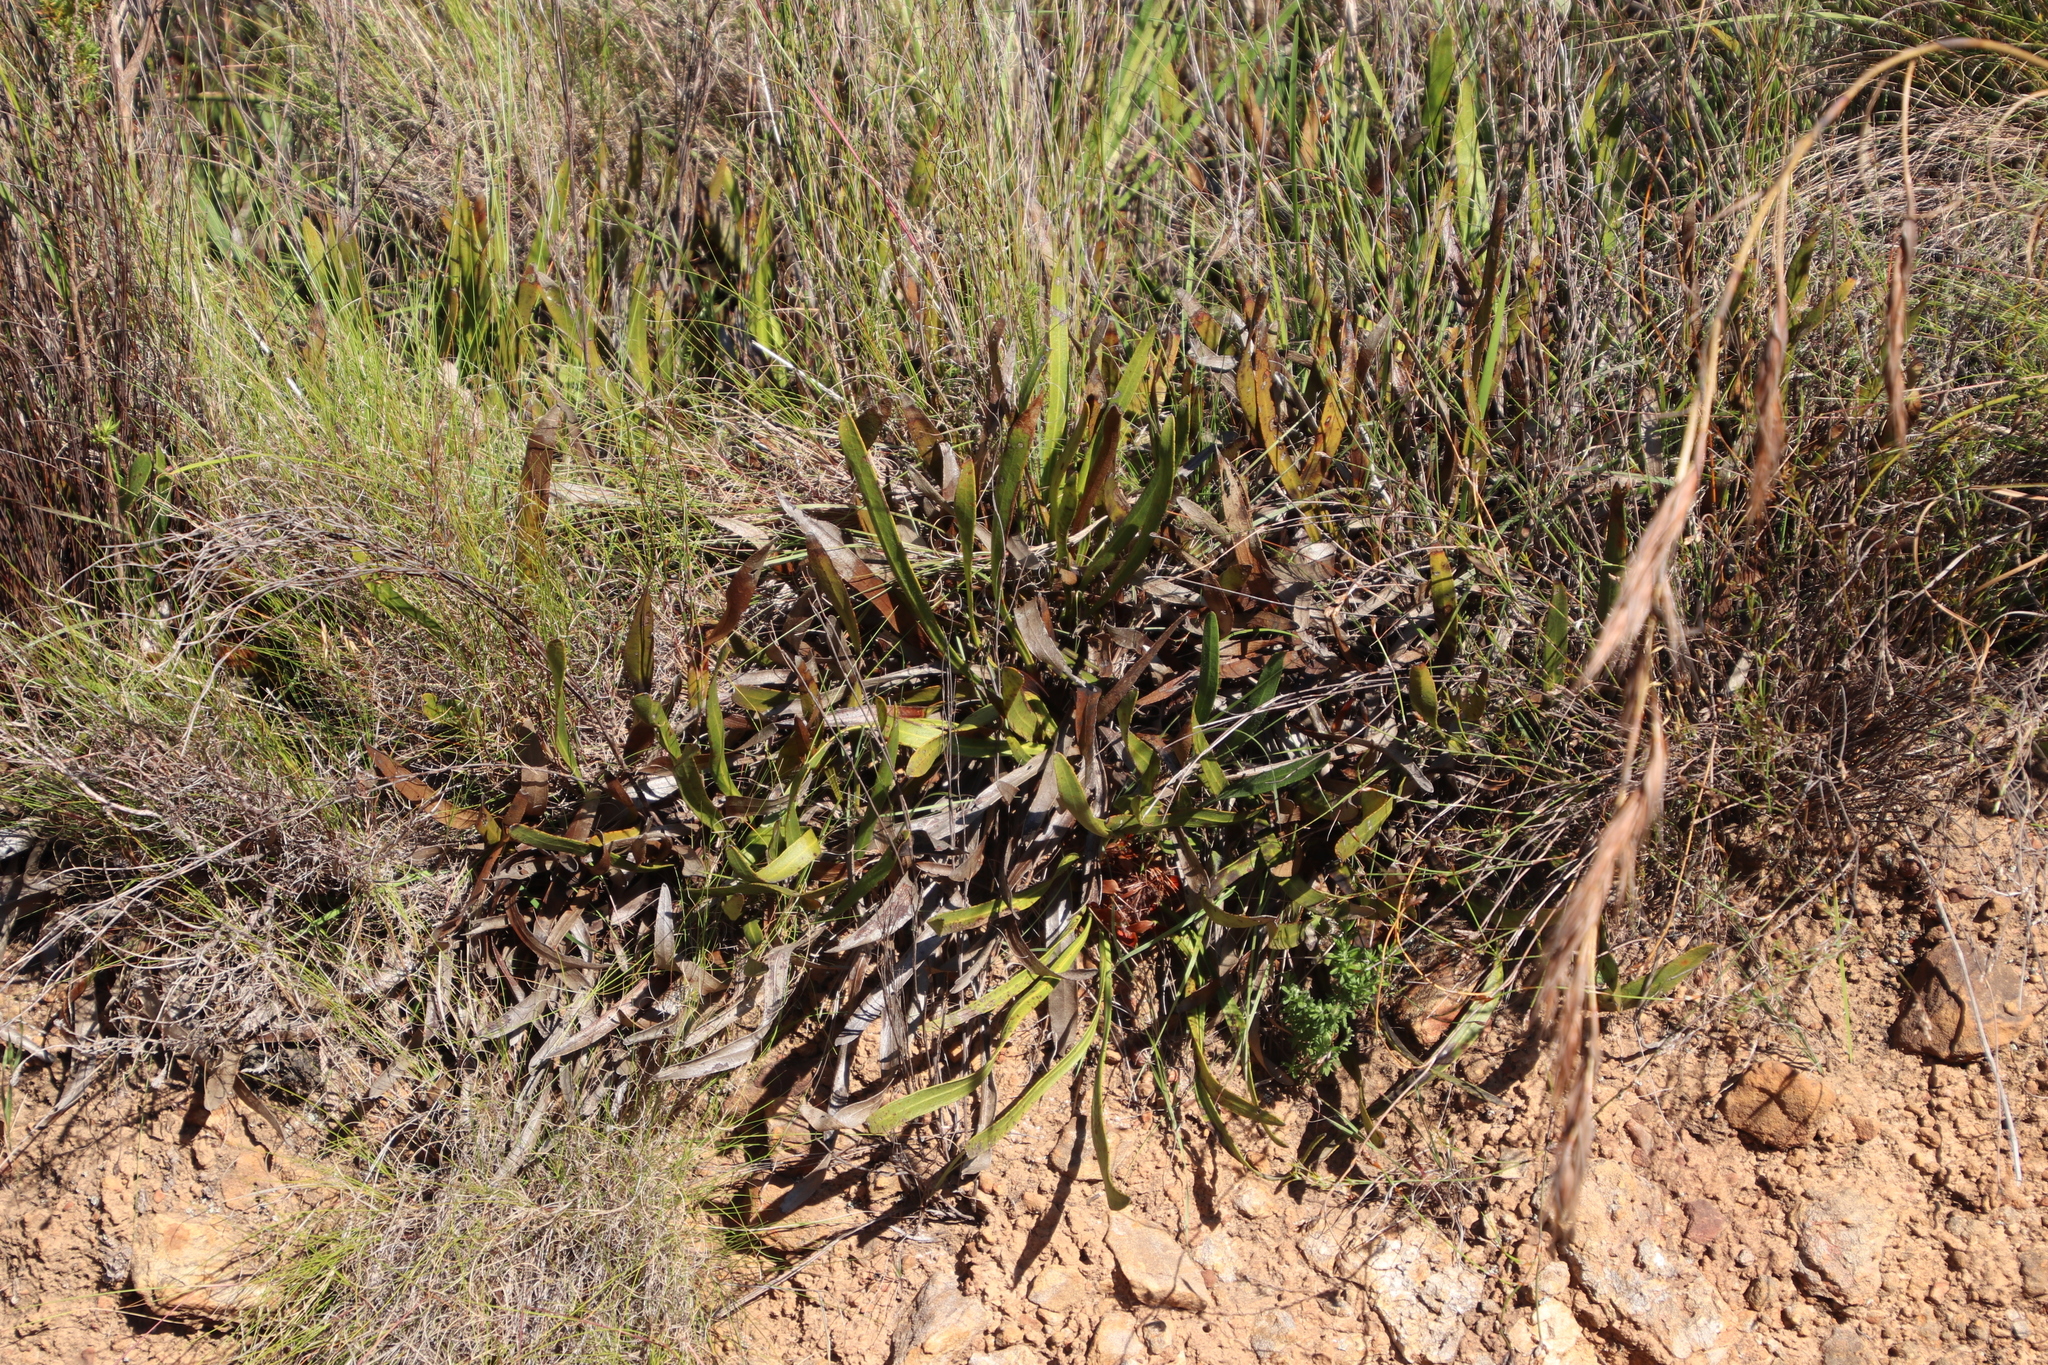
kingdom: Plantae
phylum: Tracheophyta
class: Magnoliopsida
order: Proteales
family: Proteaceae
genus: Protea
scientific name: Protea scabra
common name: Sandpaper-leaf sugarbush
